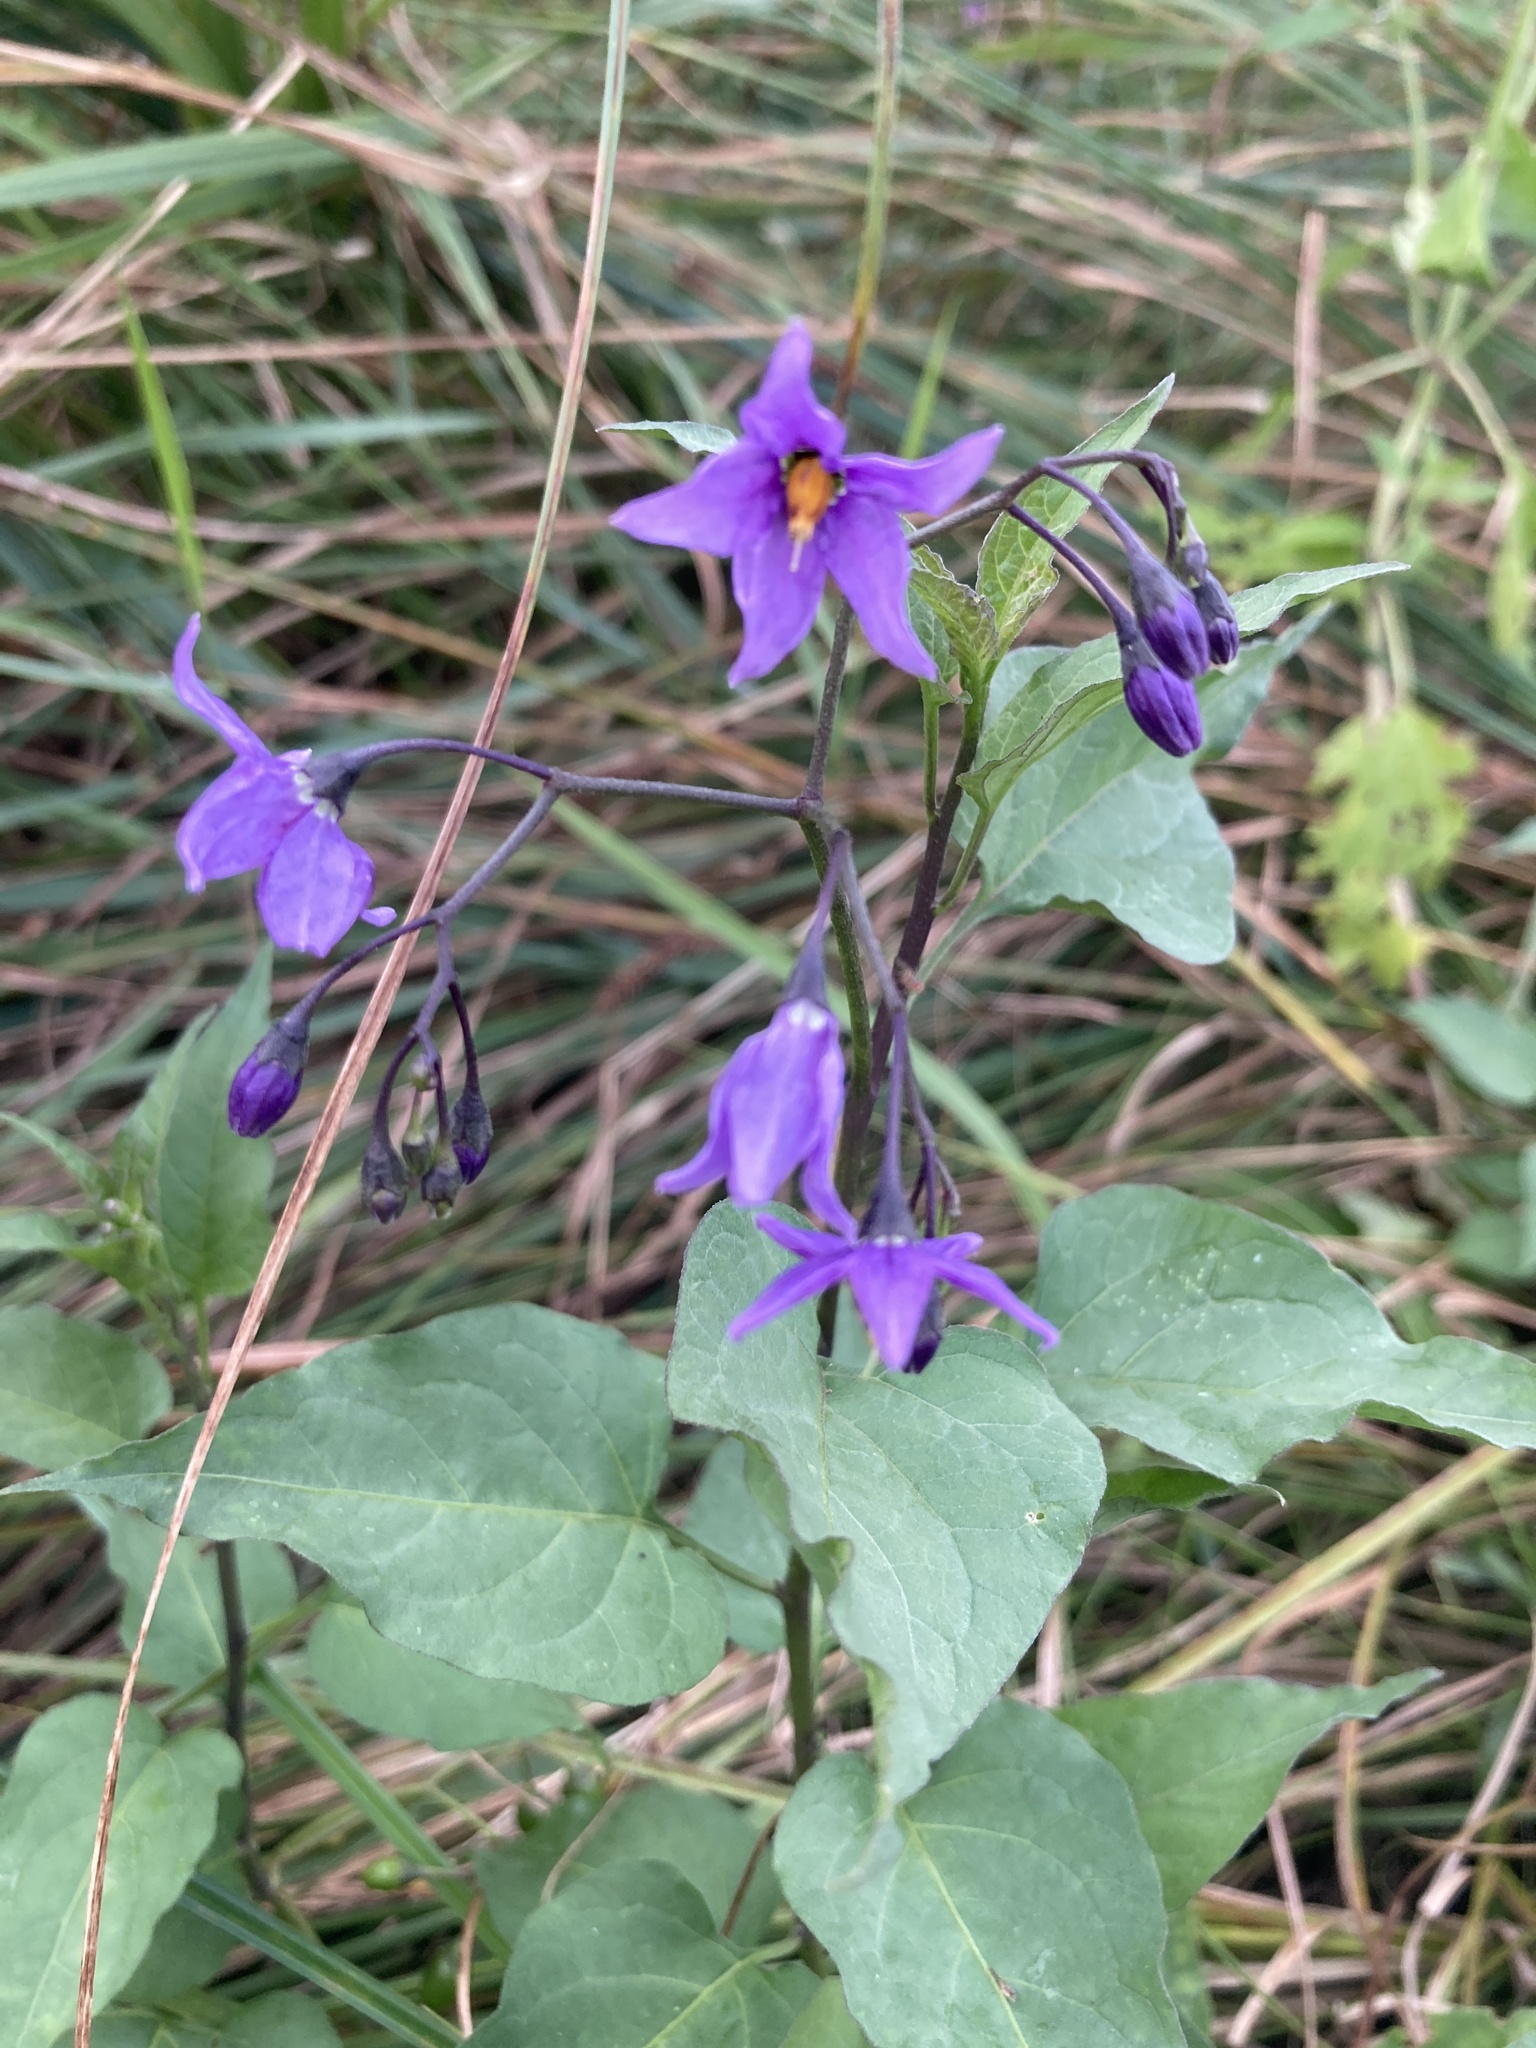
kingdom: Plantae
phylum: Tracheophyta
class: Magnoliopsida
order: Solanales
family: Solanaceae
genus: Solanum
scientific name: Solanum dulcamara
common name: Climbing nightshade
